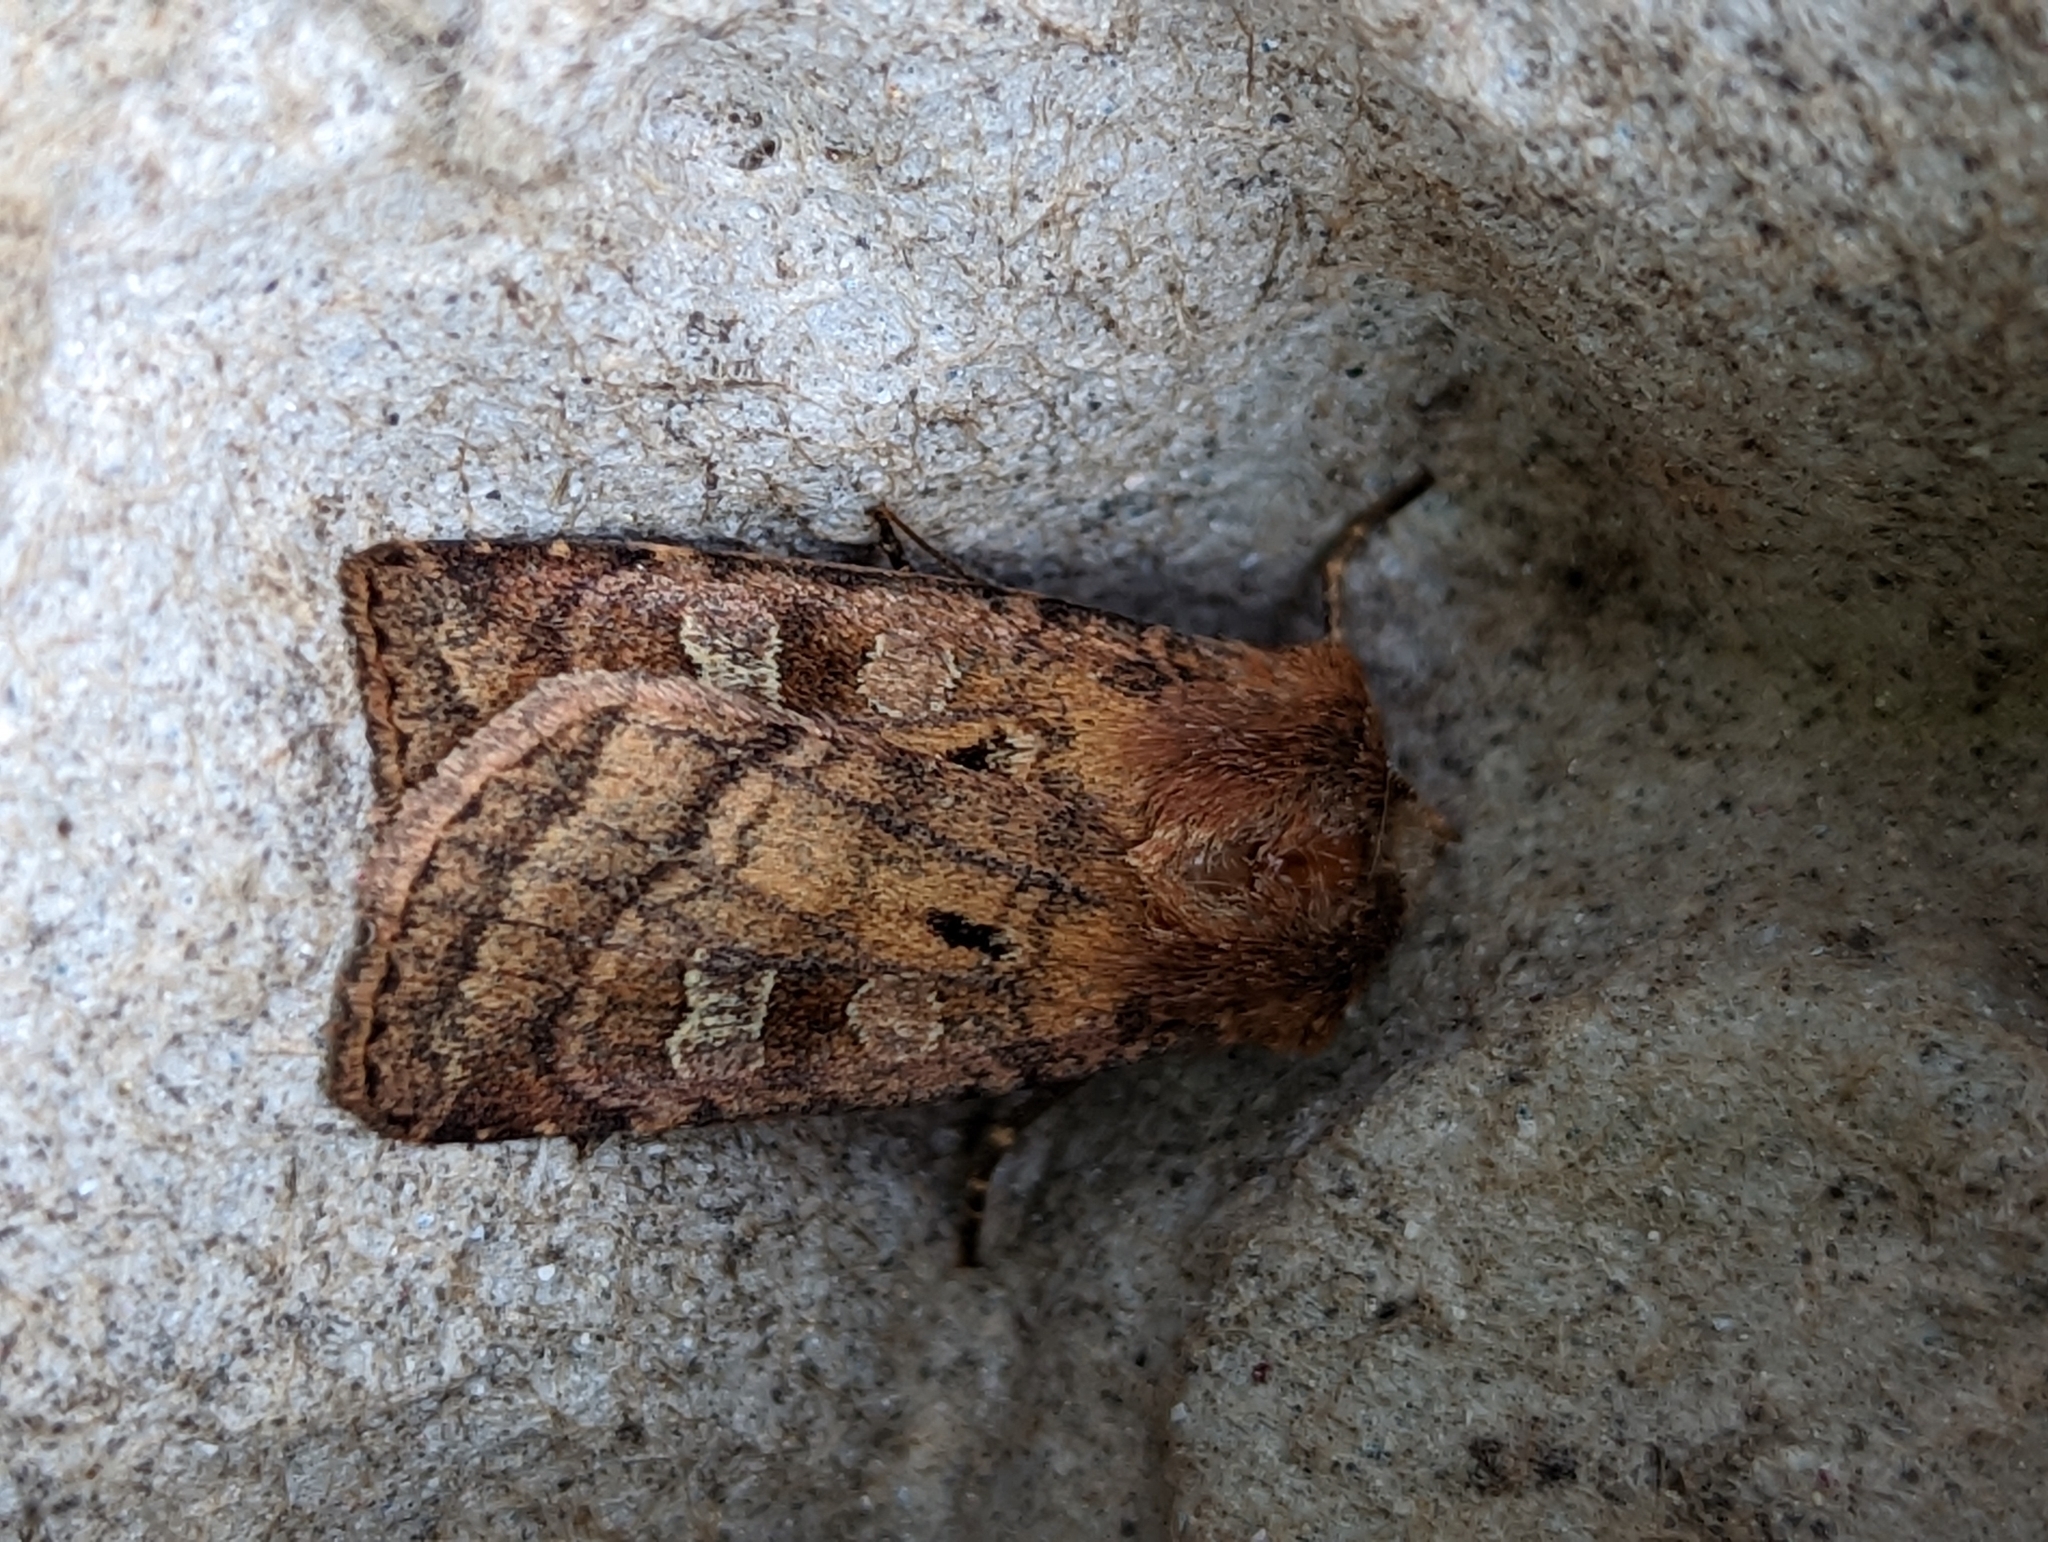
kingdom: Animalia
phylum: Arthropoda
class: Insecta
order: Lepidoptera
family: Noctuidae
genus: Diarsia
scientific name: Diarsia rubi
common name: Small square-spot
